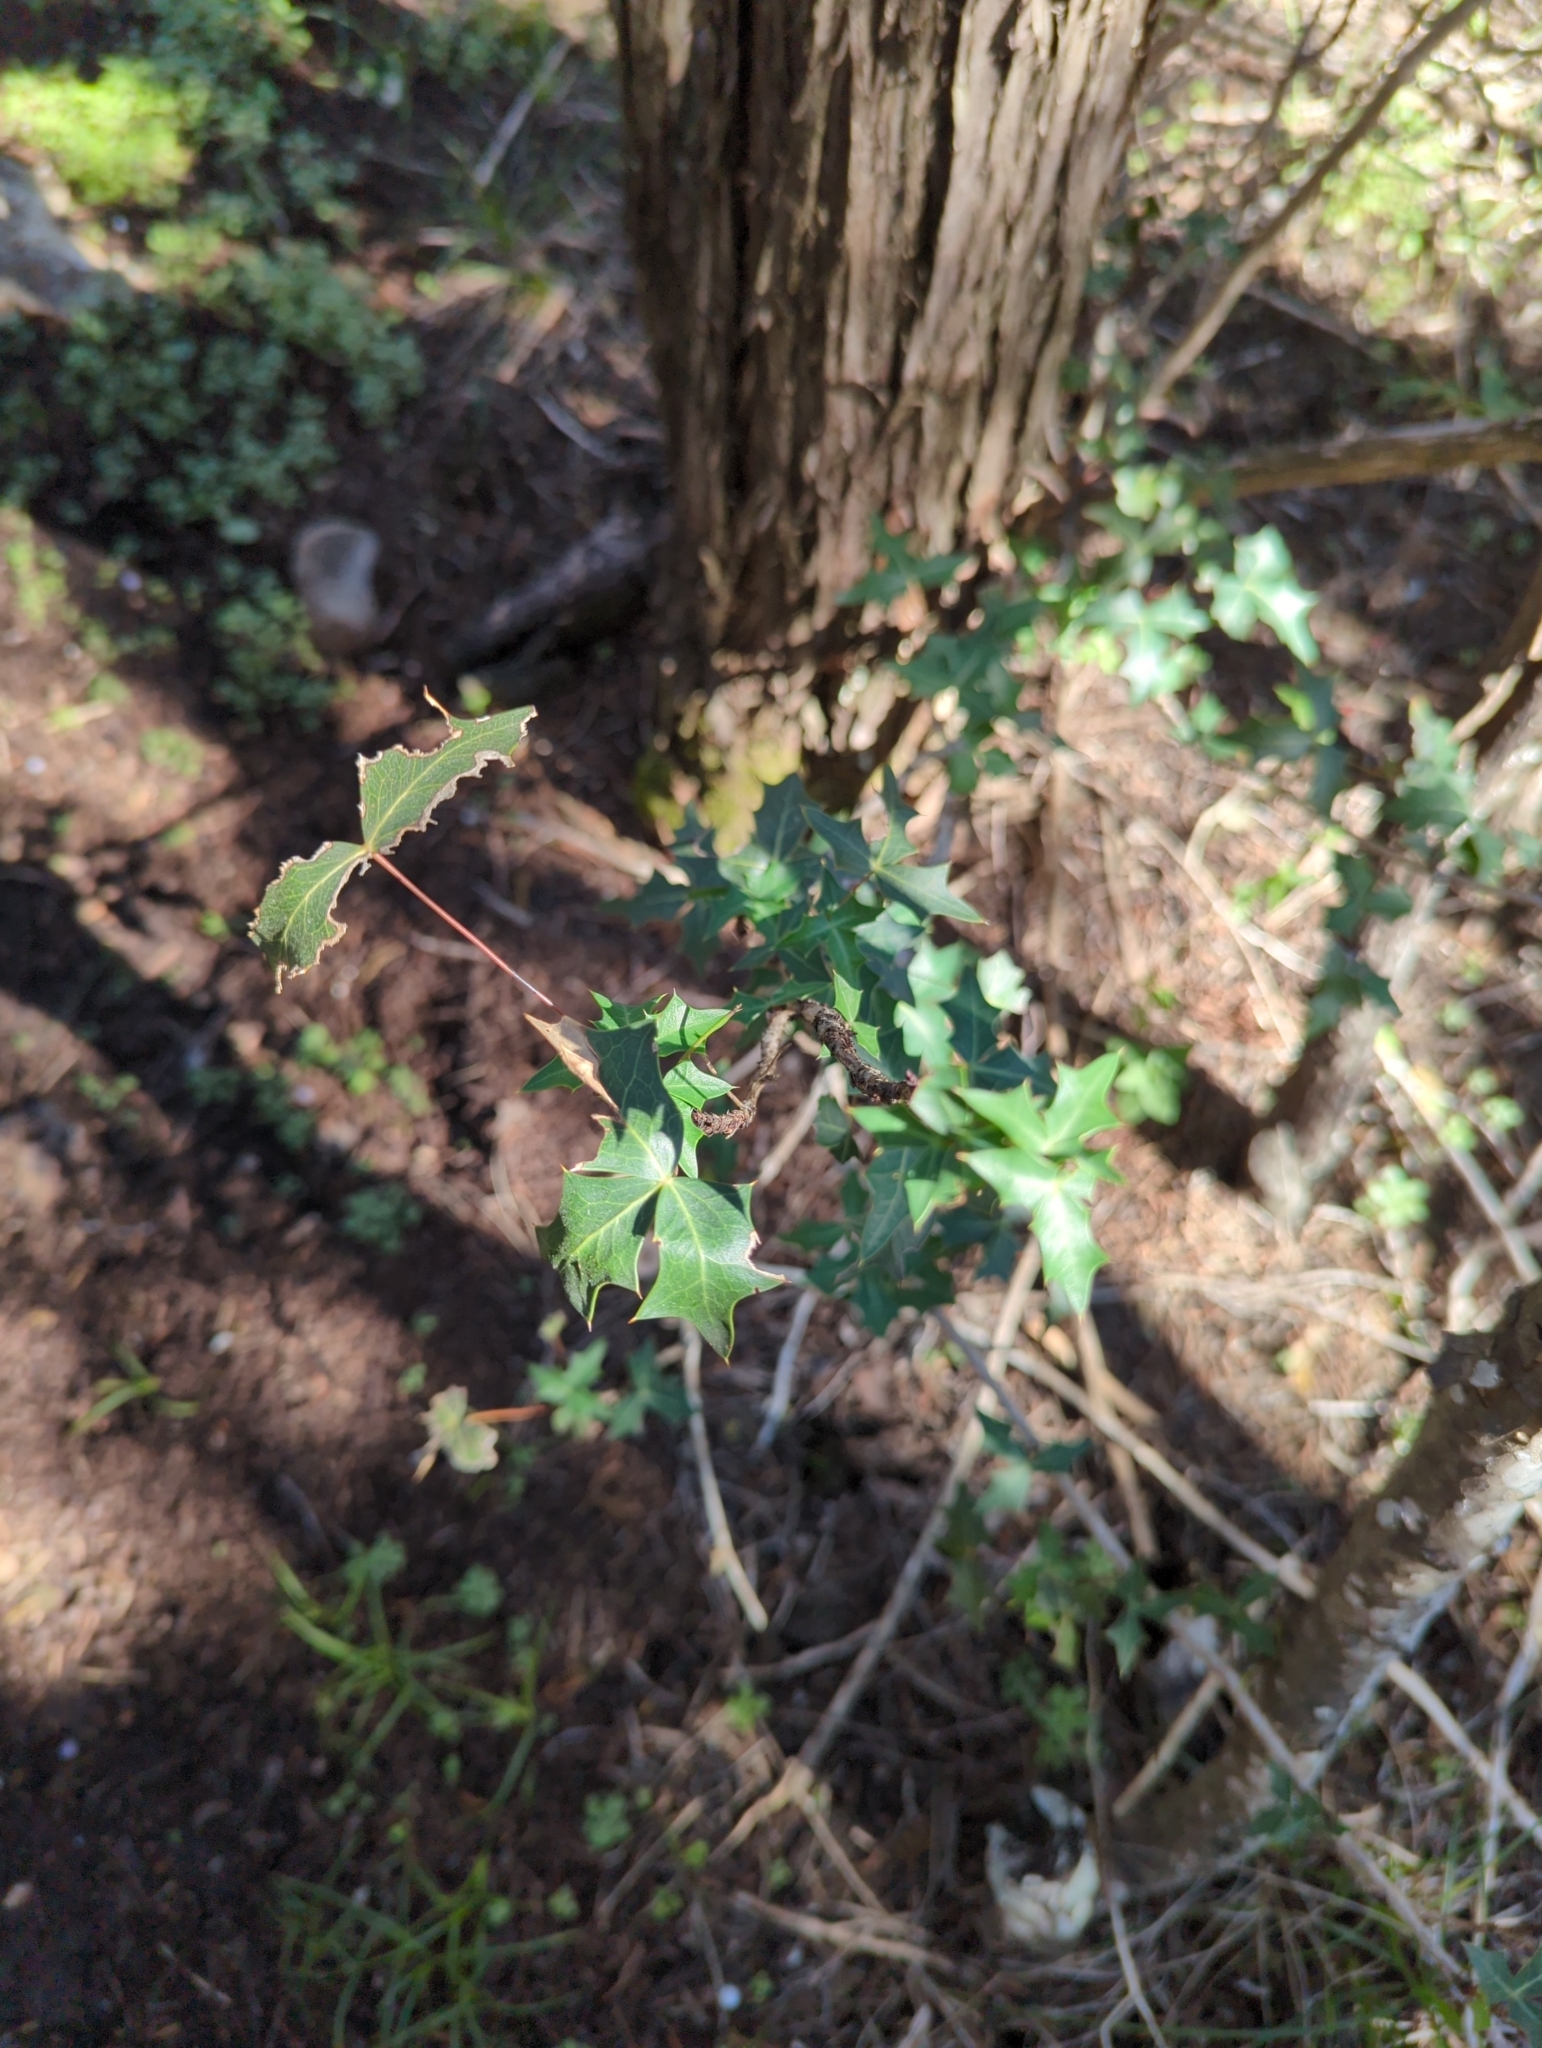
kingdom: Plantae
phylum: Tracheophyta
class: Magnoliopsida
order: Ranunculales
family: Berberidaceae
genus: Alloberberis
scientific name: Alloberberis trifoliolata
